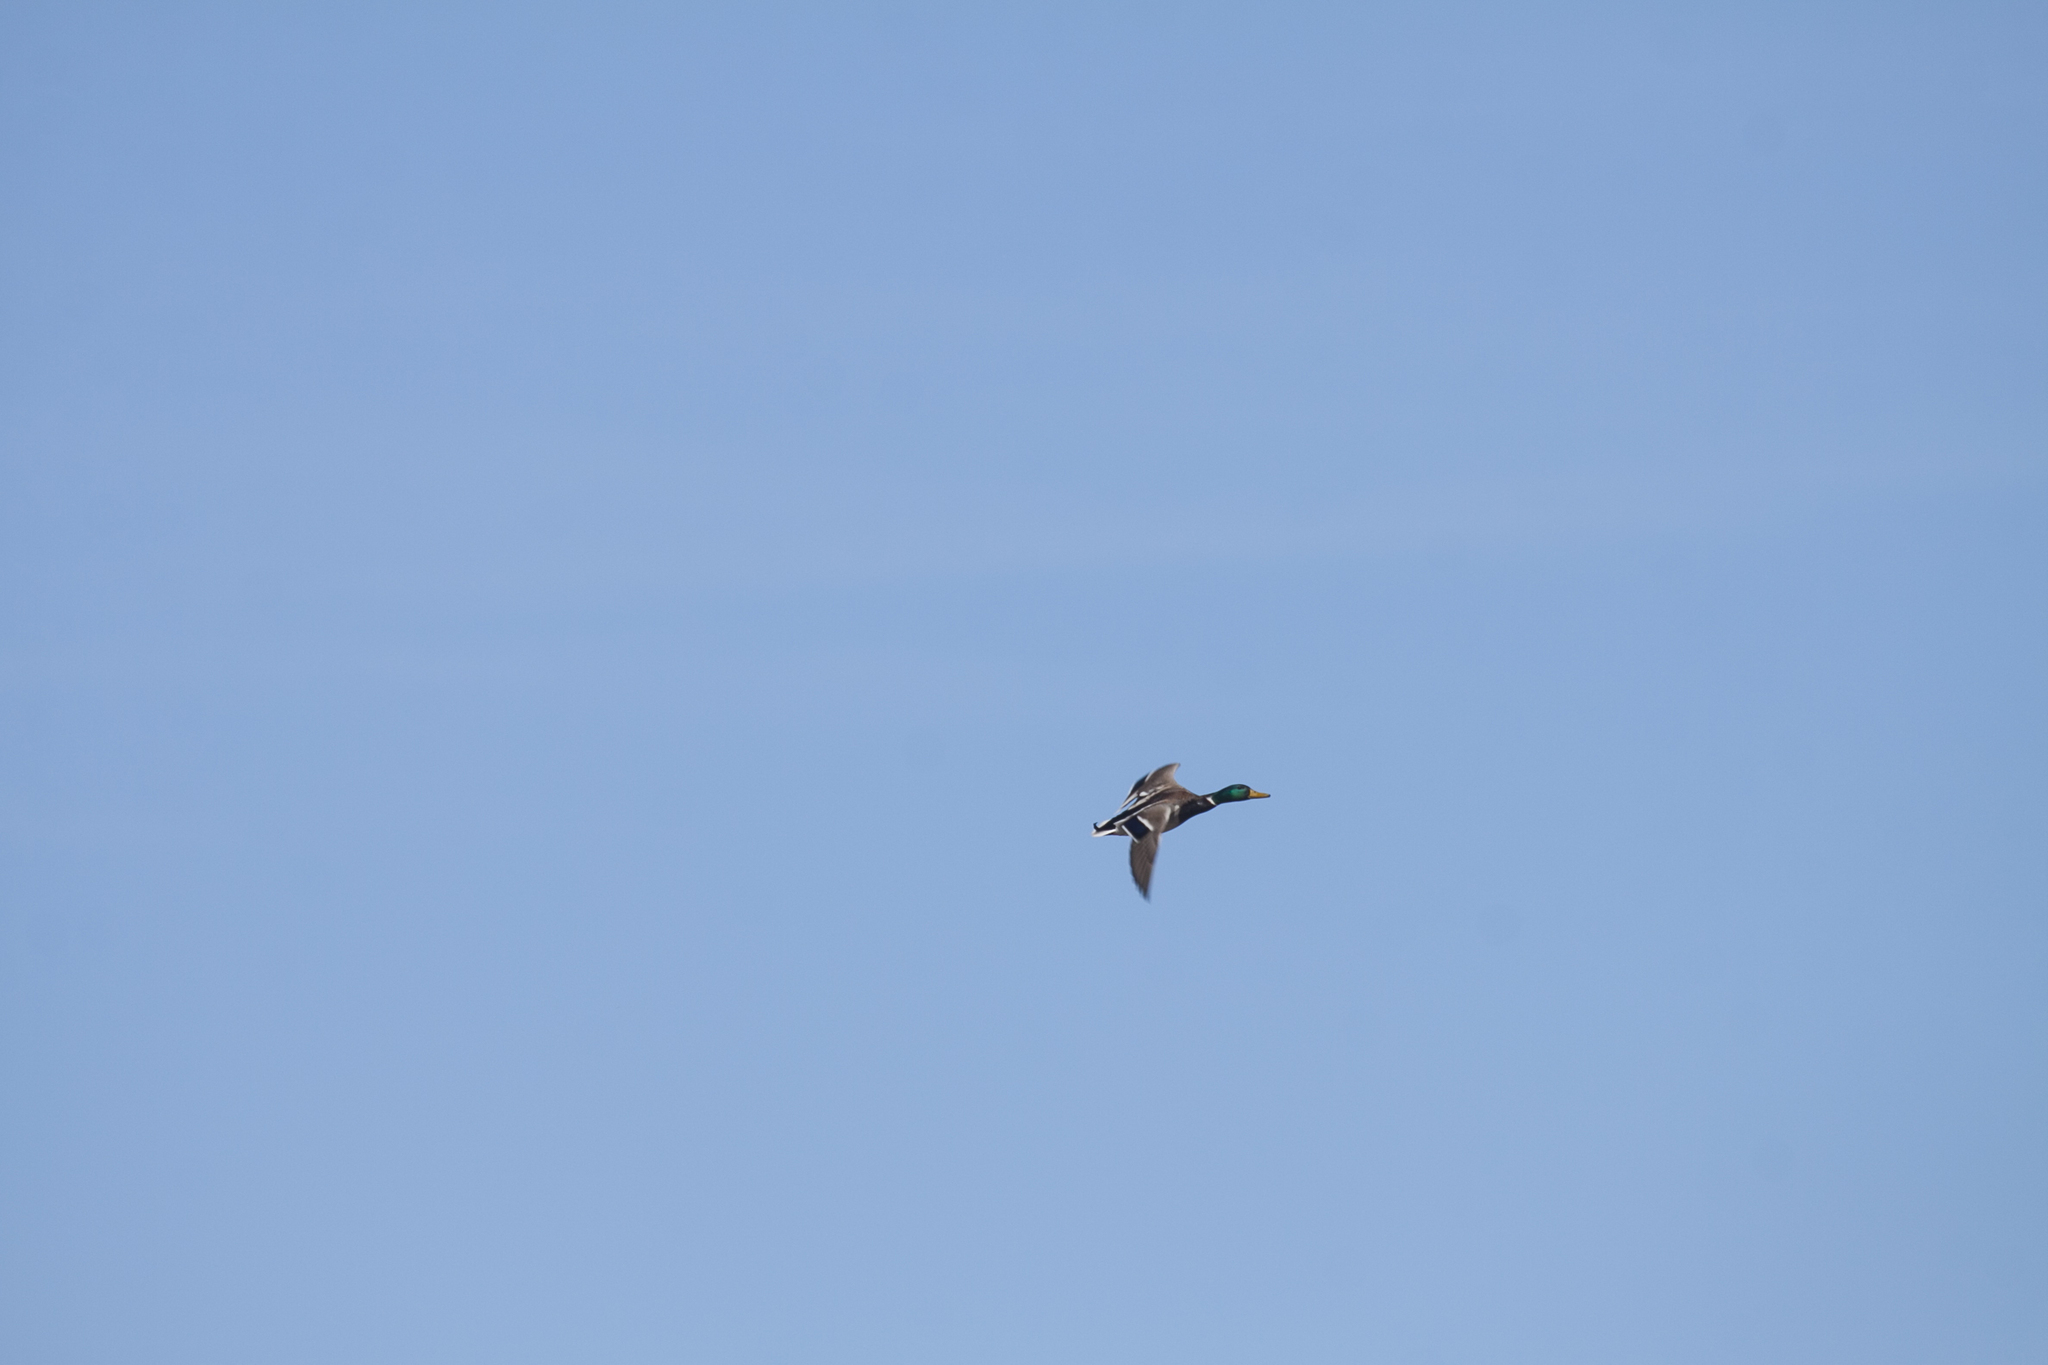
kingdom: Animalia
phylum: Chordata
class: Aves
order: Anseriformes
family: Anatidae
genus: Anas
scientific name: Anas platyrhynchos
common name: Mallard
